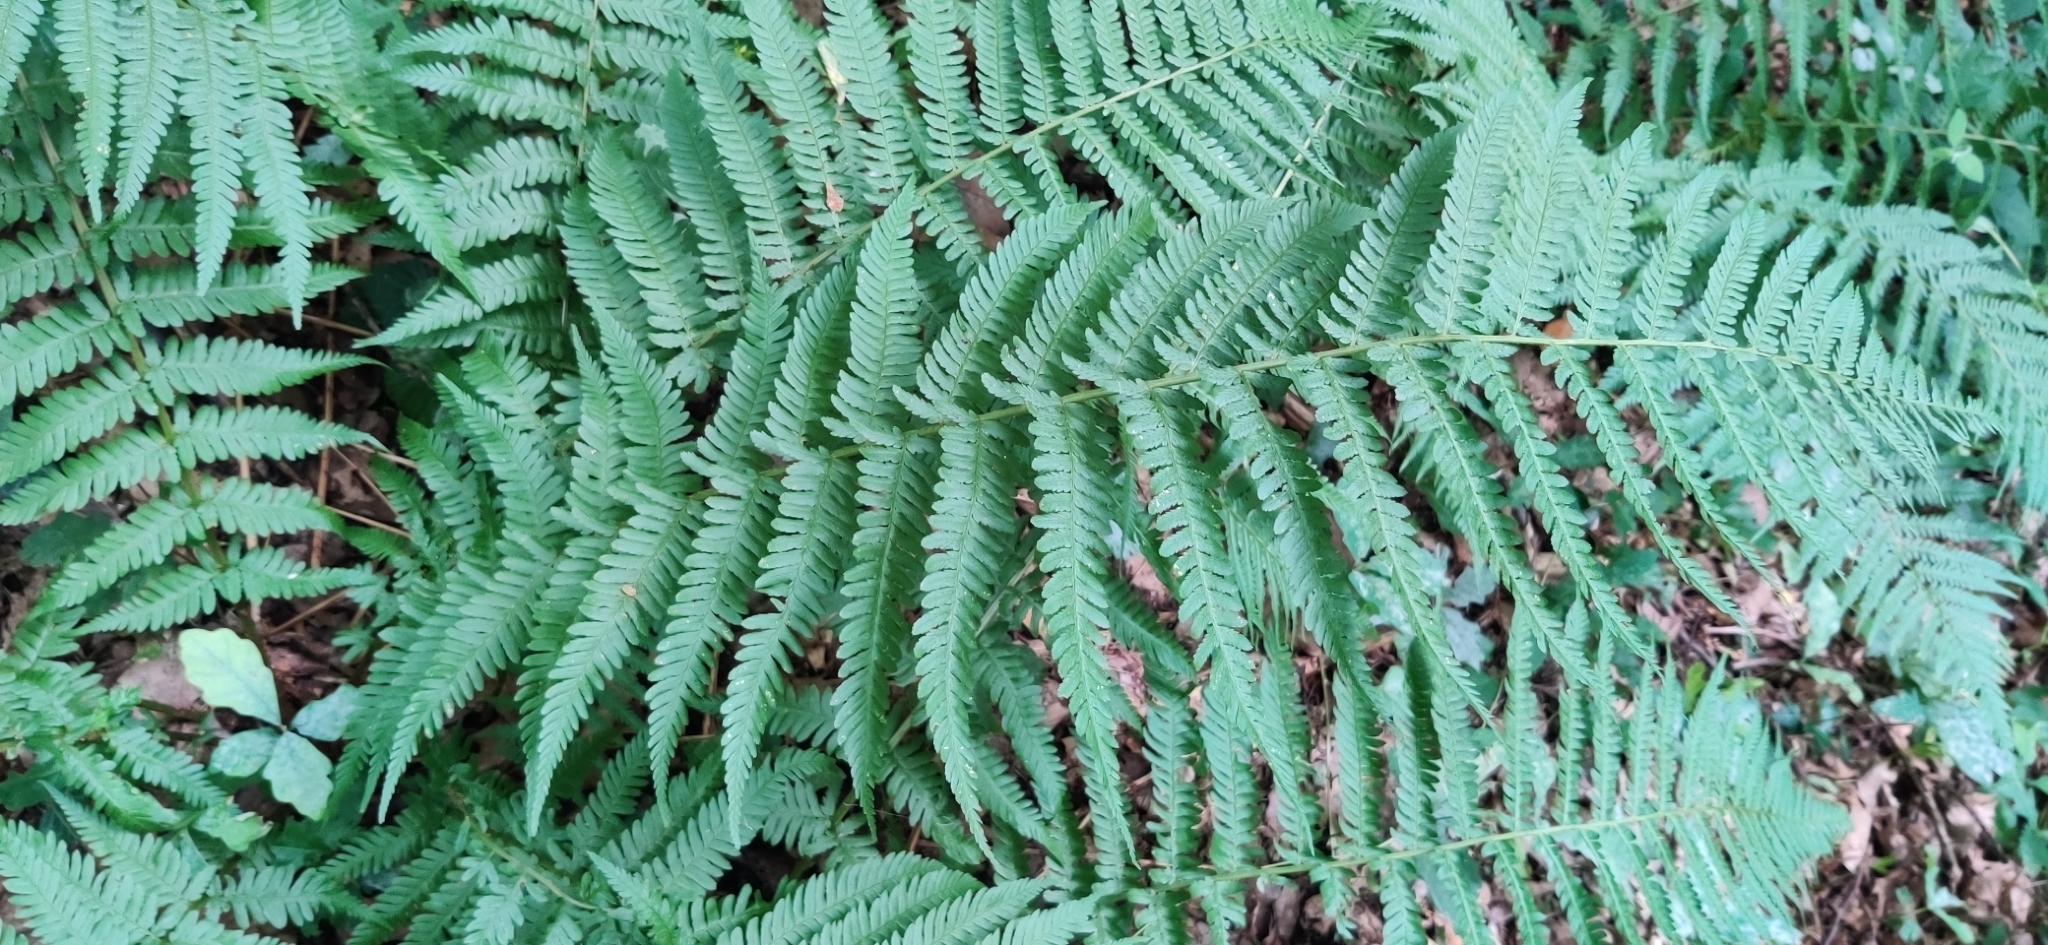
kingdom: Plantae
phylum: Tracheophyta
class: Polypodiopsida
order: Polypodiales
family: Dryopteridaceae
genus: Dryopteris
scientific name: Dryopteris filix-mas
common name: Male fern
